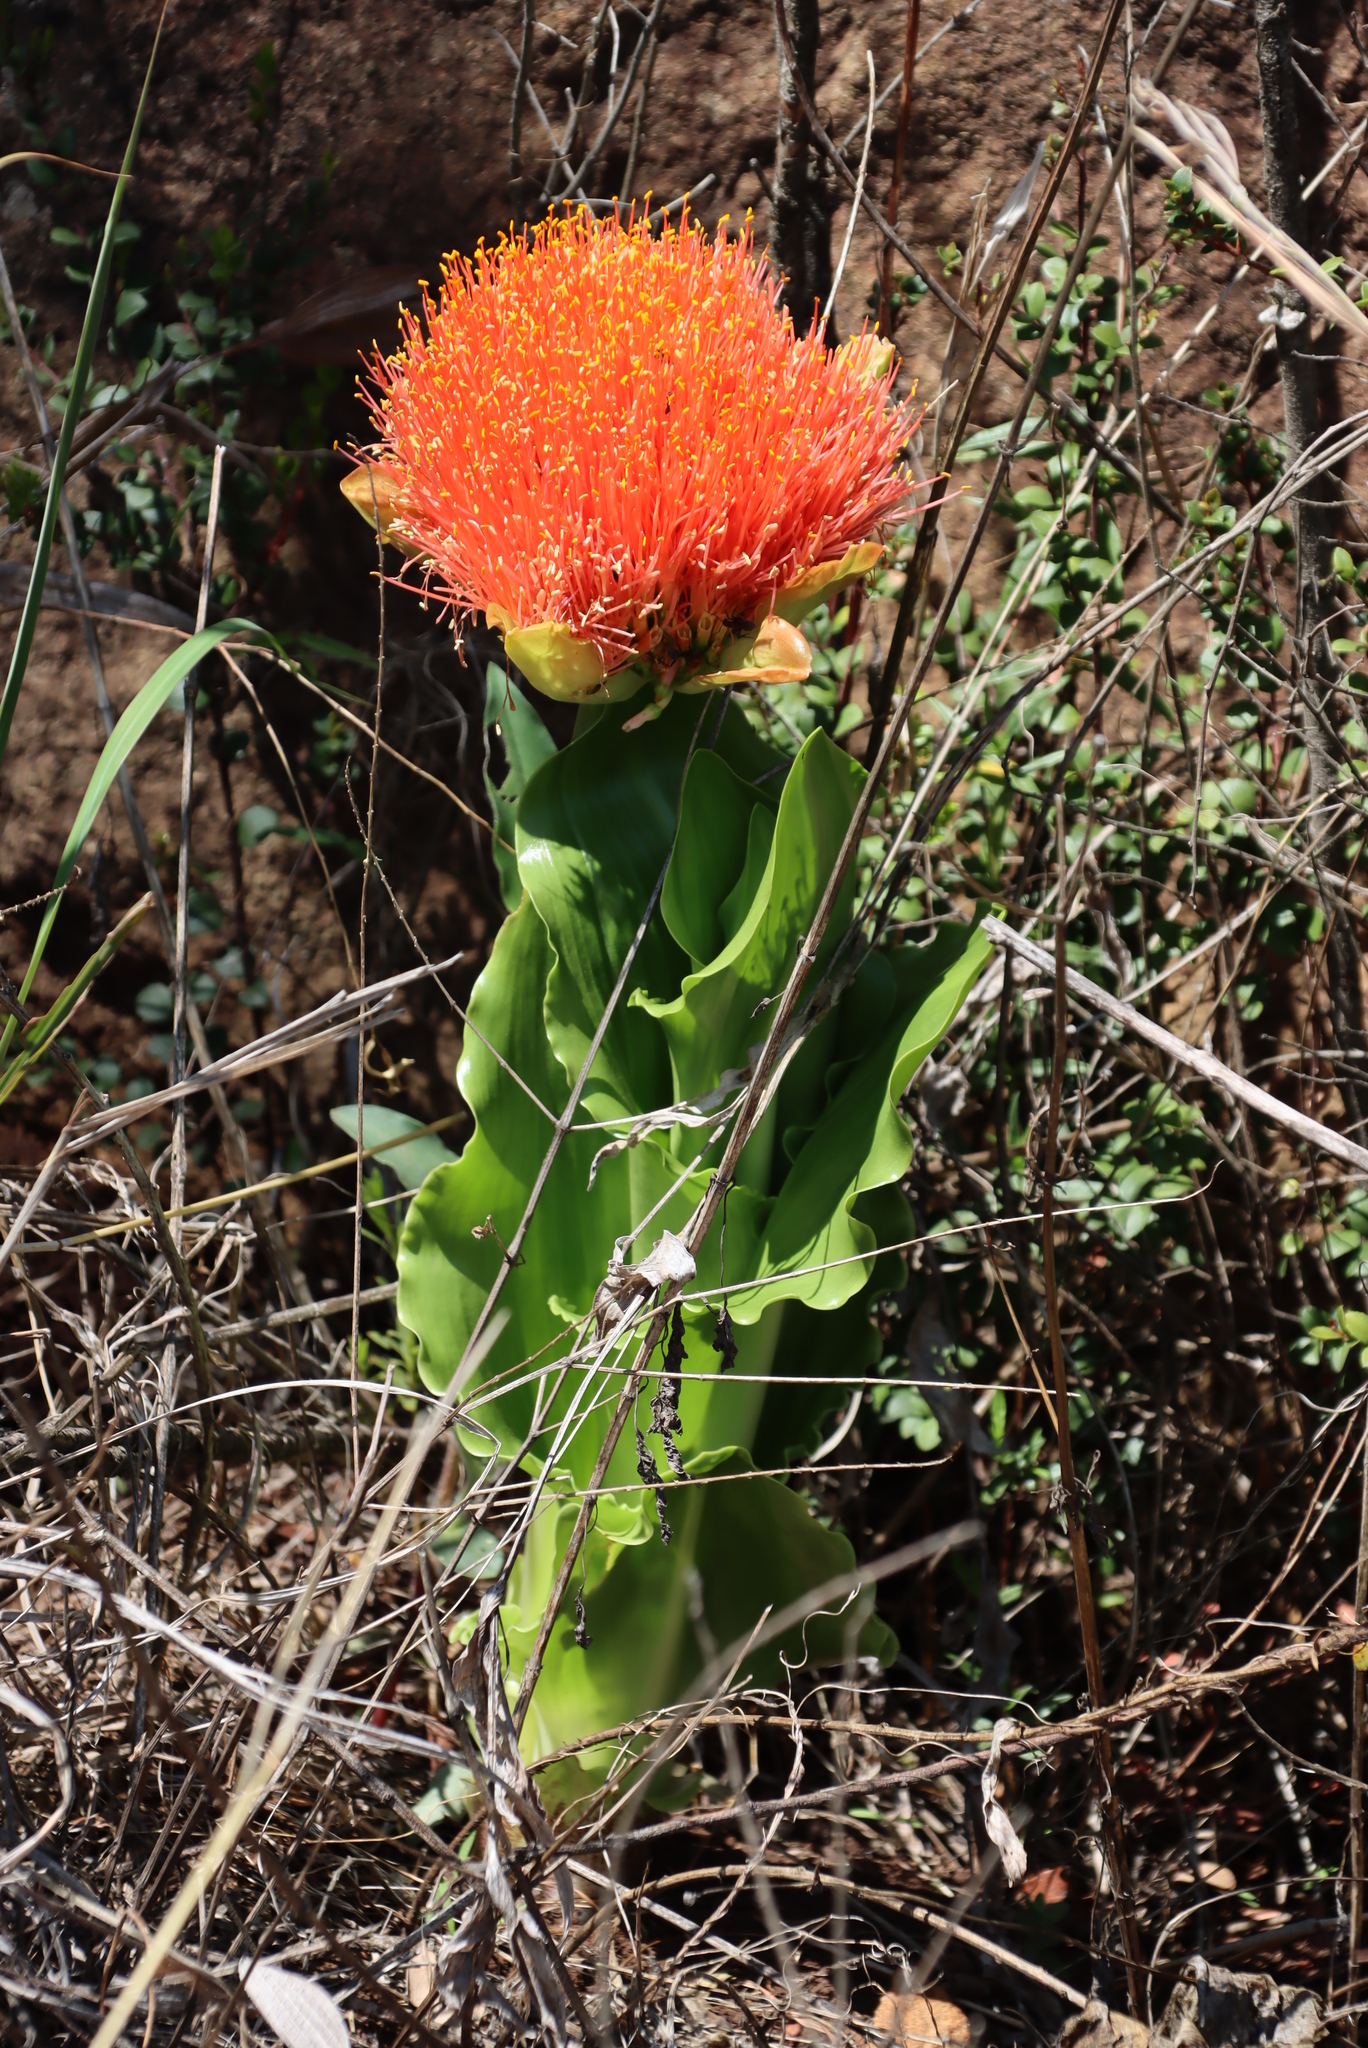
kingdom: Plantae
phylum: Tracheophyta
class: Liliopsida
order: Asparagales
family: Amaryllidaceae
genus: Scadoxus
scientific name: Scadoxus puniceus
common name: Royal-paintbrush
